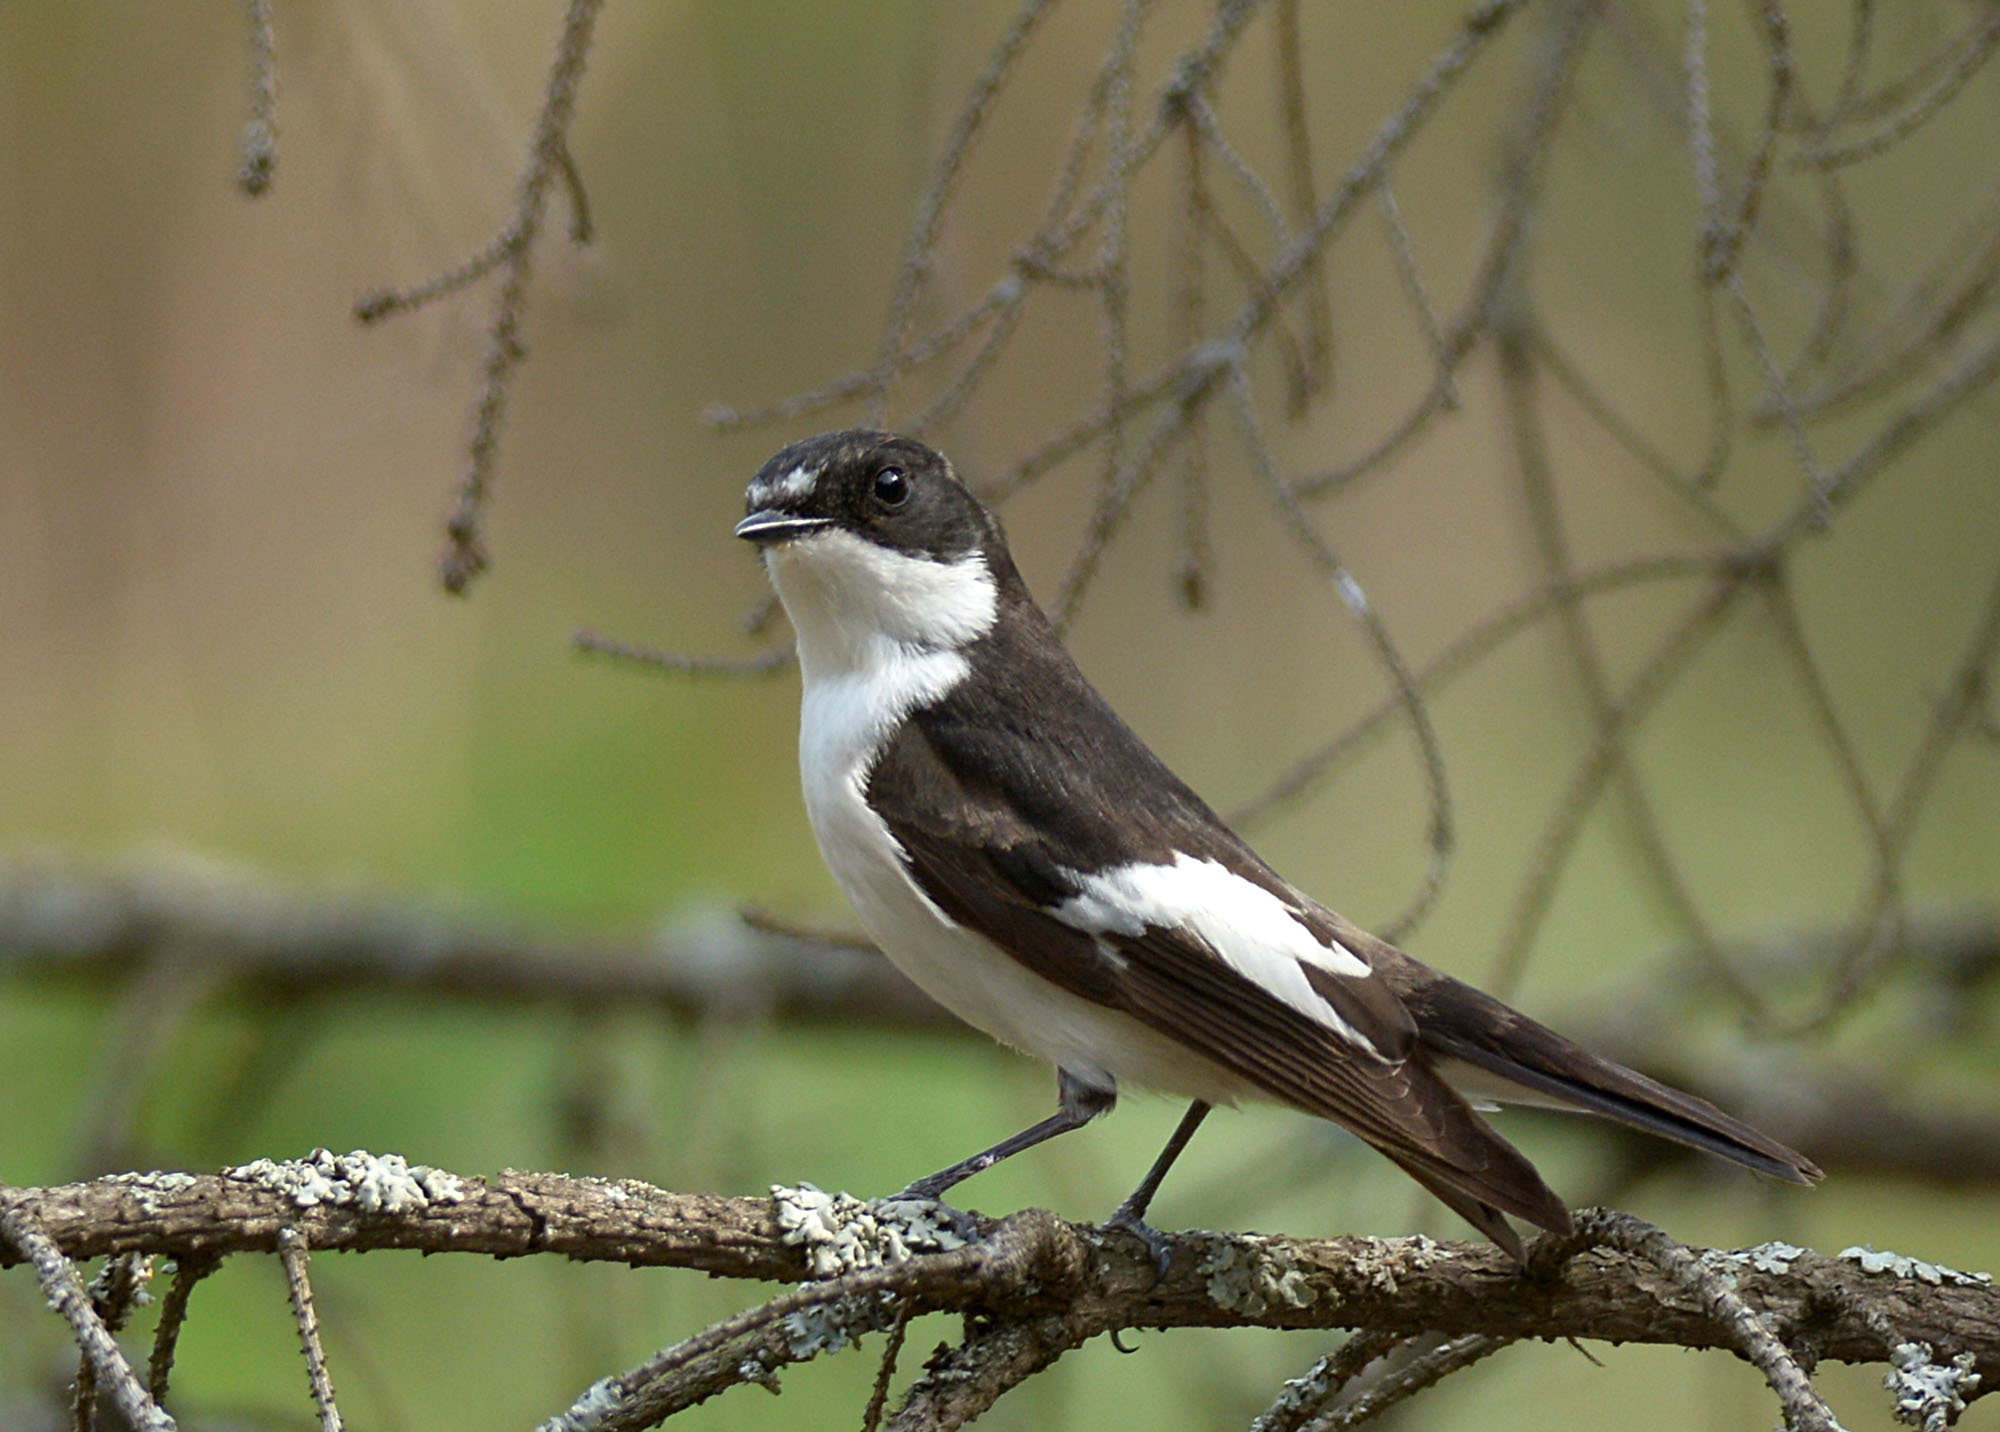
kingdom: Animalia
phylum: Chordata
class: Aves
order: Passeriformes
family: Muscicapidae
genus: Ficedula
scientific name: Ficedula hypoleuca
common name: European pied flycatcher
